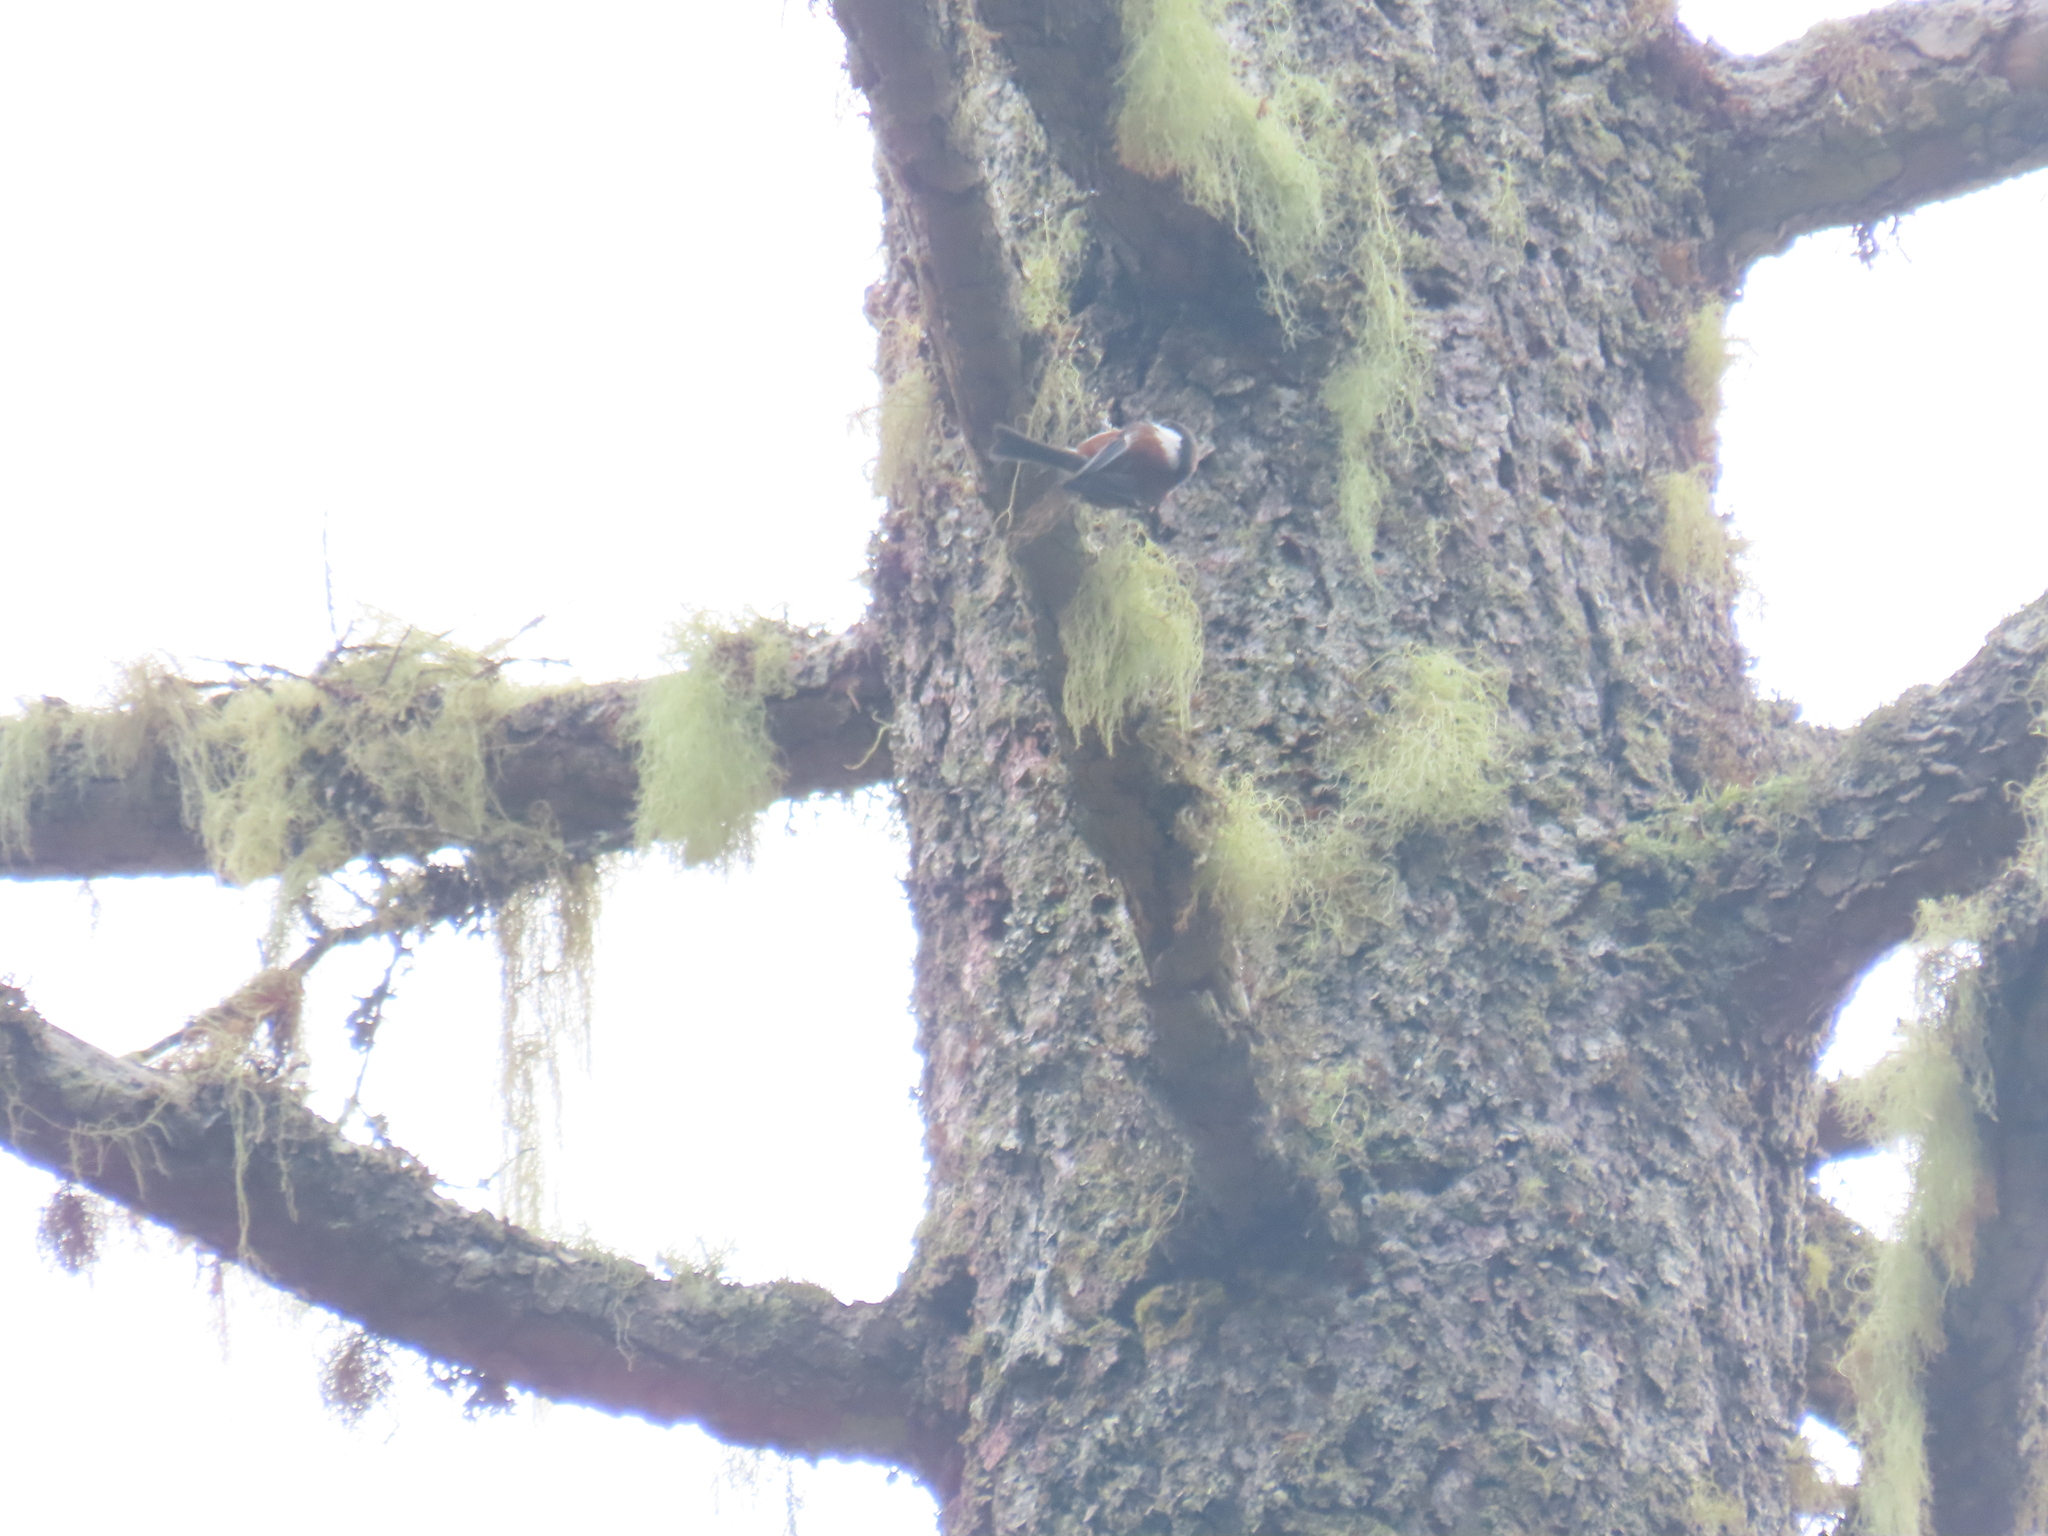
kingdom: Animalia
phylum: Chordata
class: Aves
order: Passeriformes
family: Paridae
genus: Poecile
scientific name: Poecile rufescens
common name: Chestnut-backed chickadee
